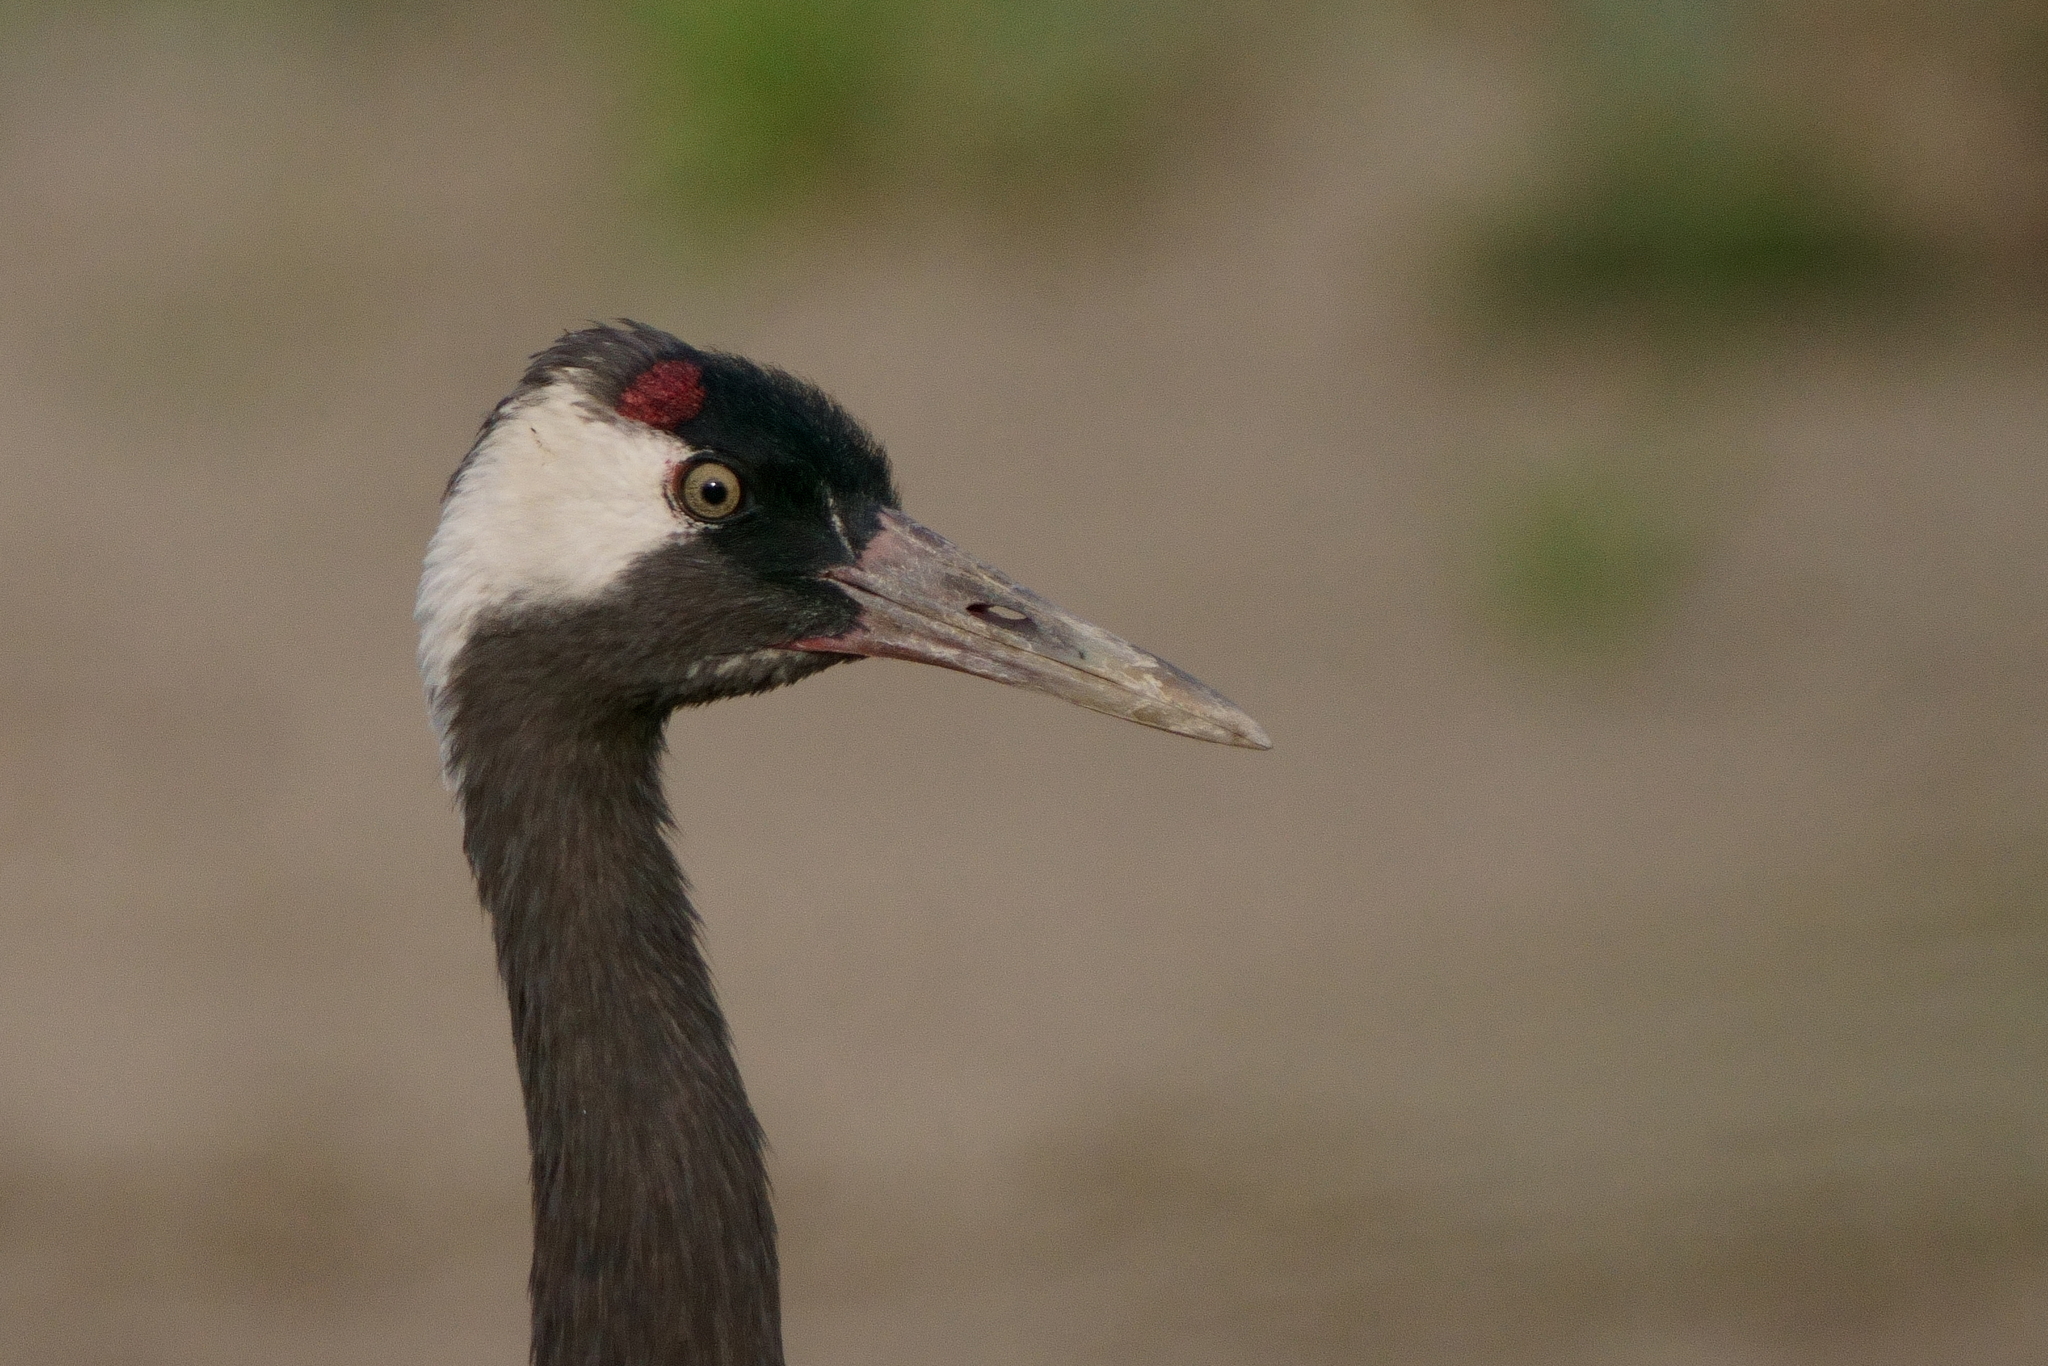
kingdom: Animalia
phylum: Chordata
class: Aves
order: Gruiformes
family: Gruidae
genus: Grus
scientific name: Grus grus
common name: Common crane
